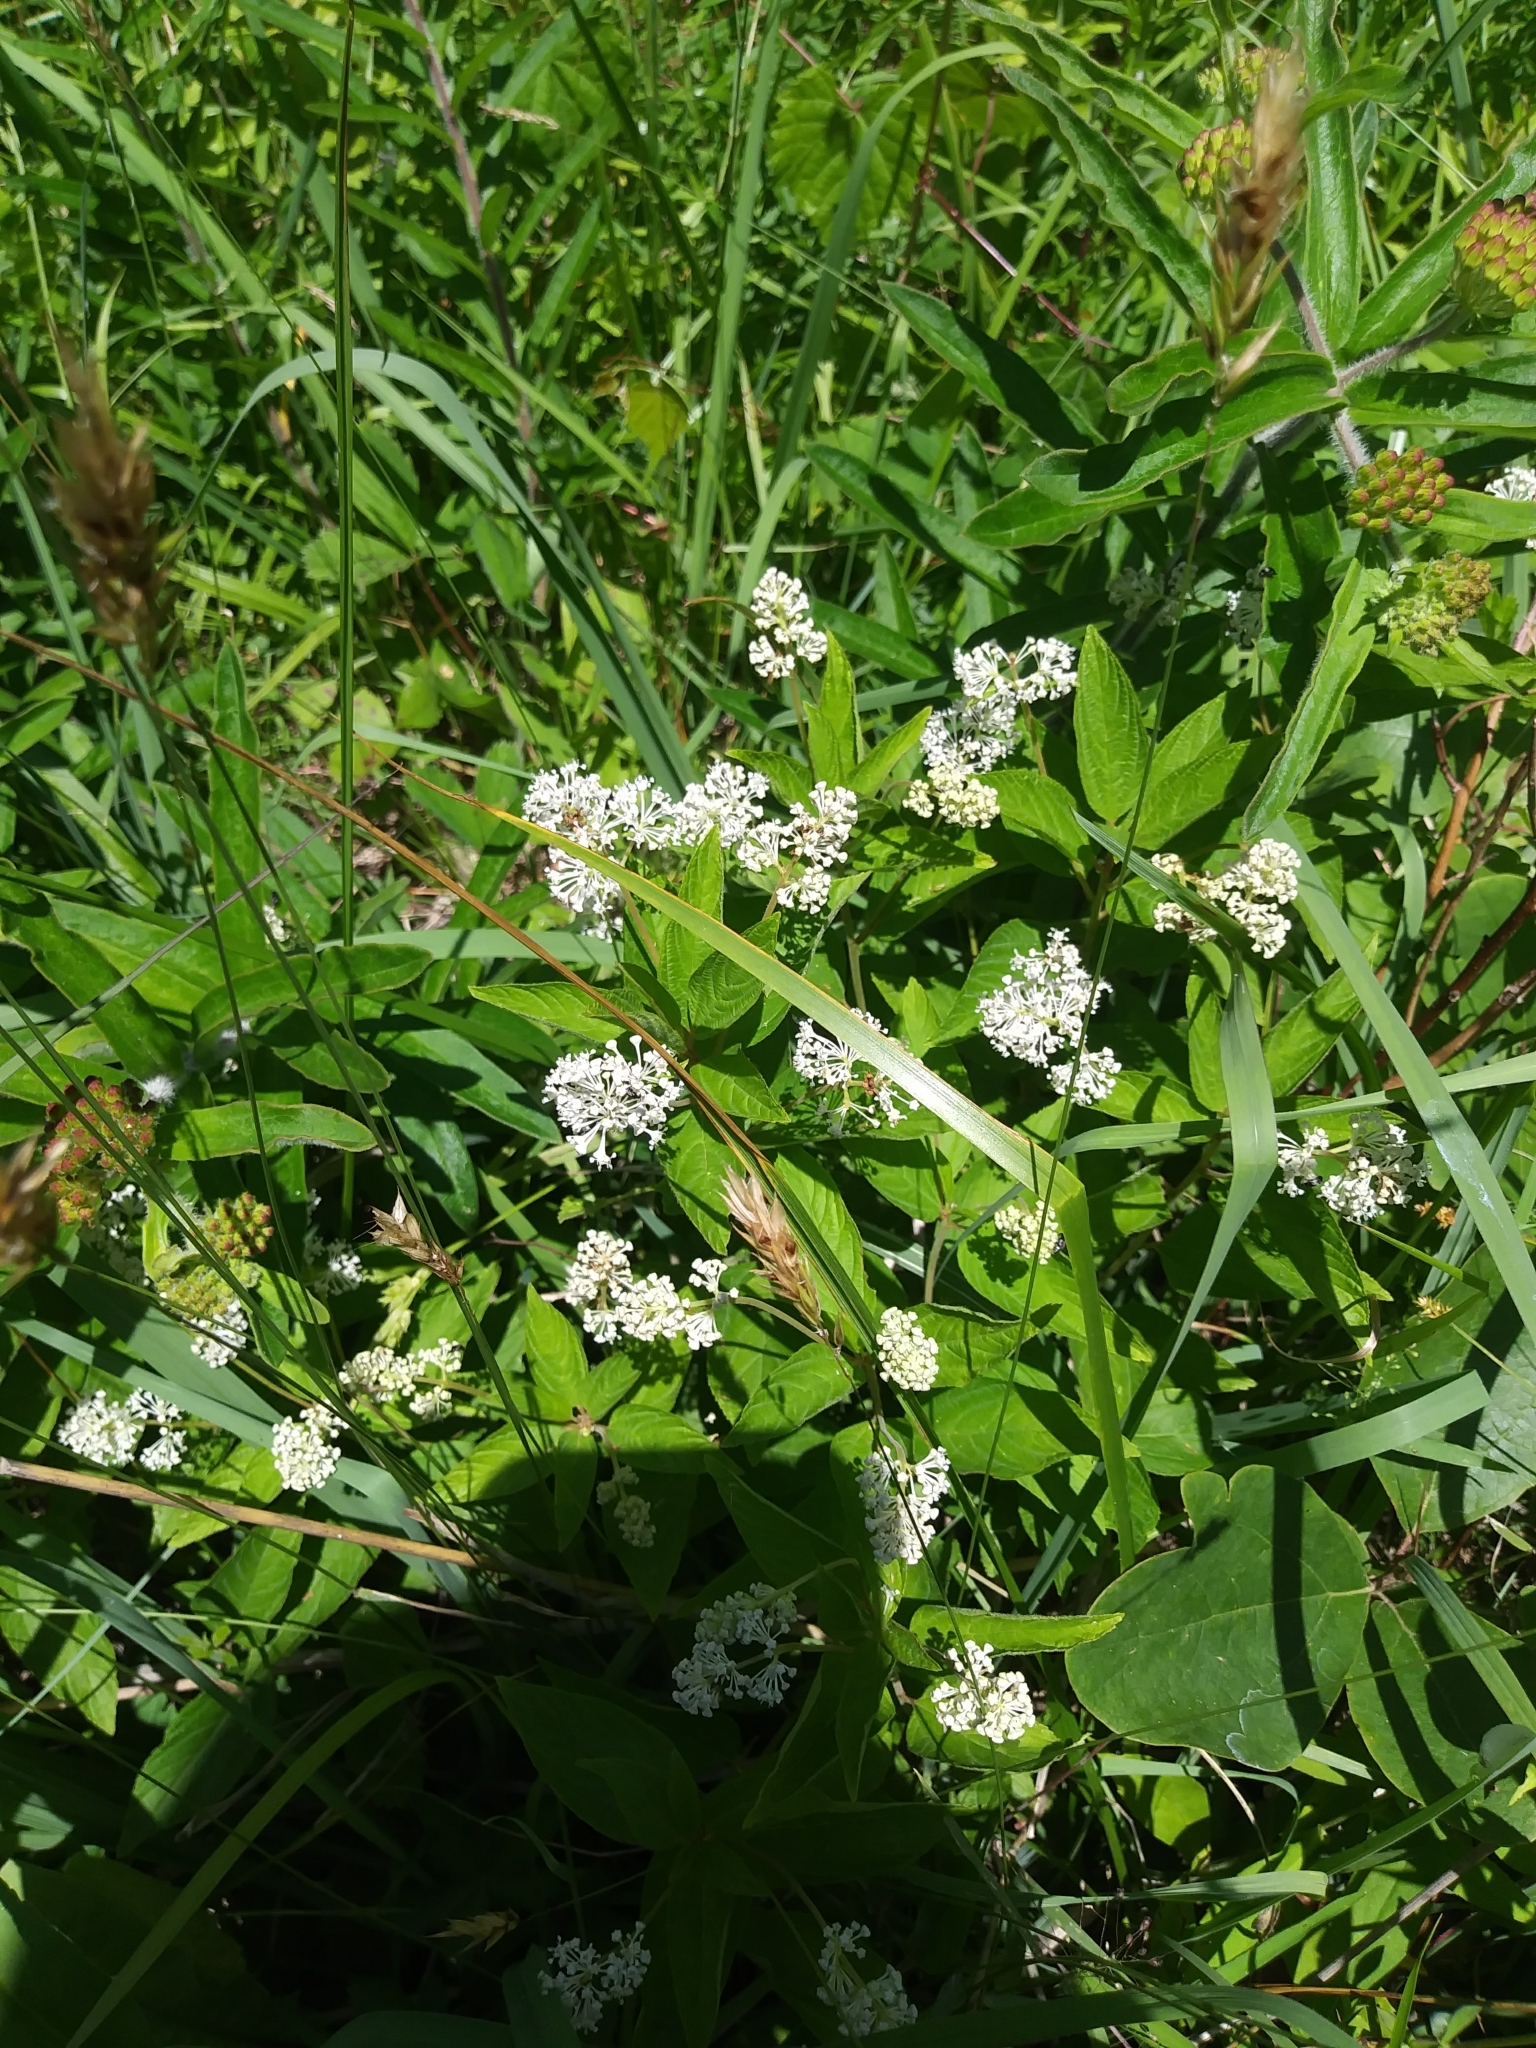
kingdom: Plantae
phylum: Tracheophyta
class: Magnoliopsida
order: Rosales
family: Rhamnaceae
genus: Ceanothus
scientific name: Ceanothus americanus
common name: Redroot
